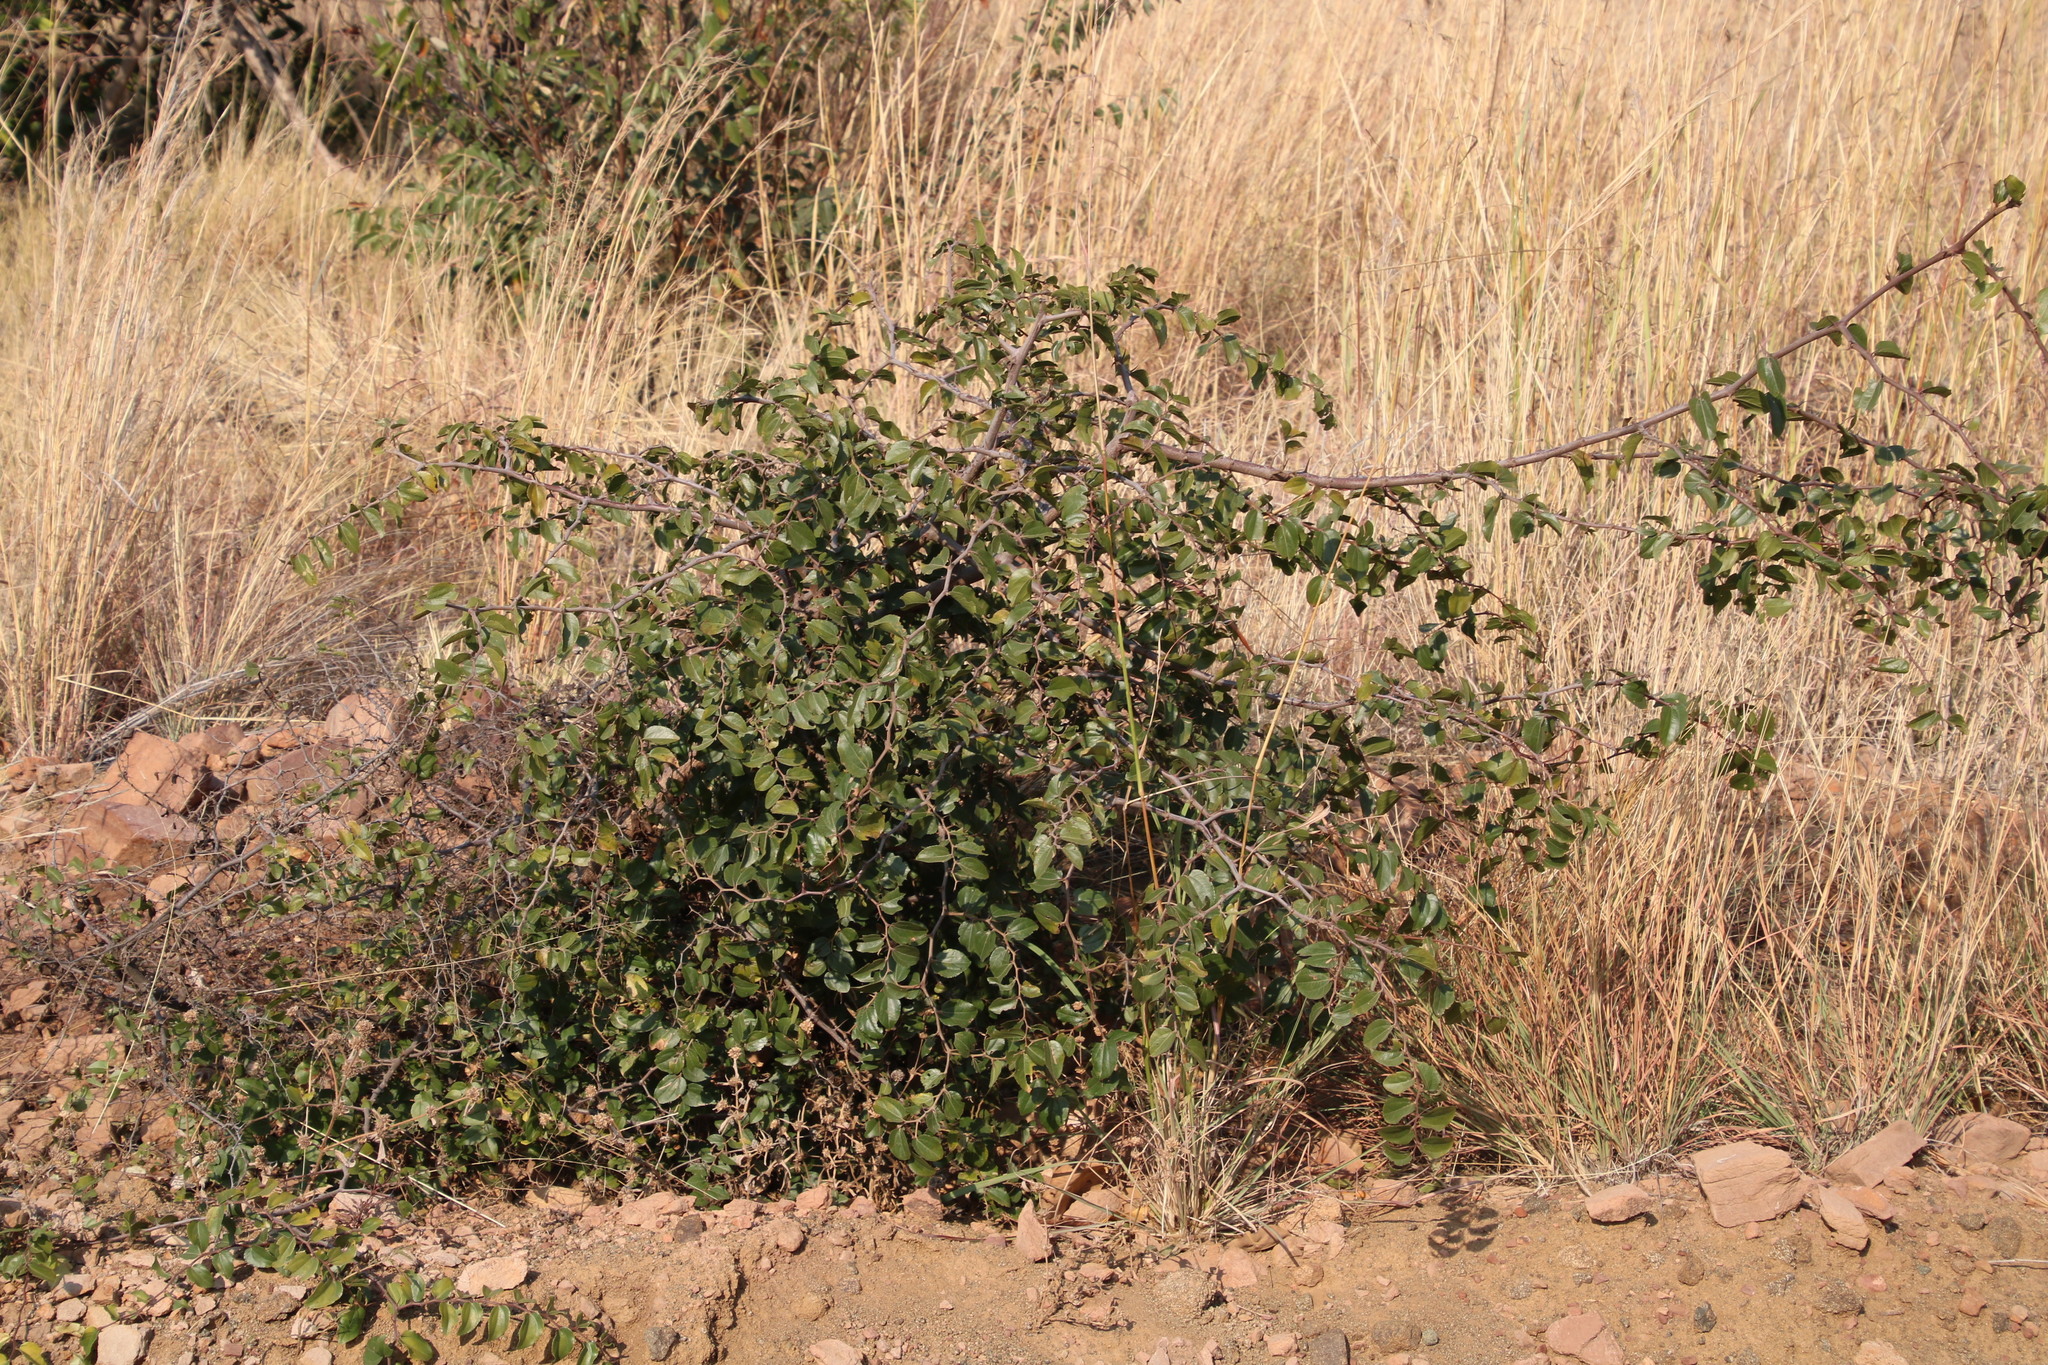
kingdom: Plantae
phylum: Tracheophyta
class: Magnoliopsida
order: Rosales
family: Rhamnaceae
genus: Ziziphus
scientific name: Ziziphus mucronata
